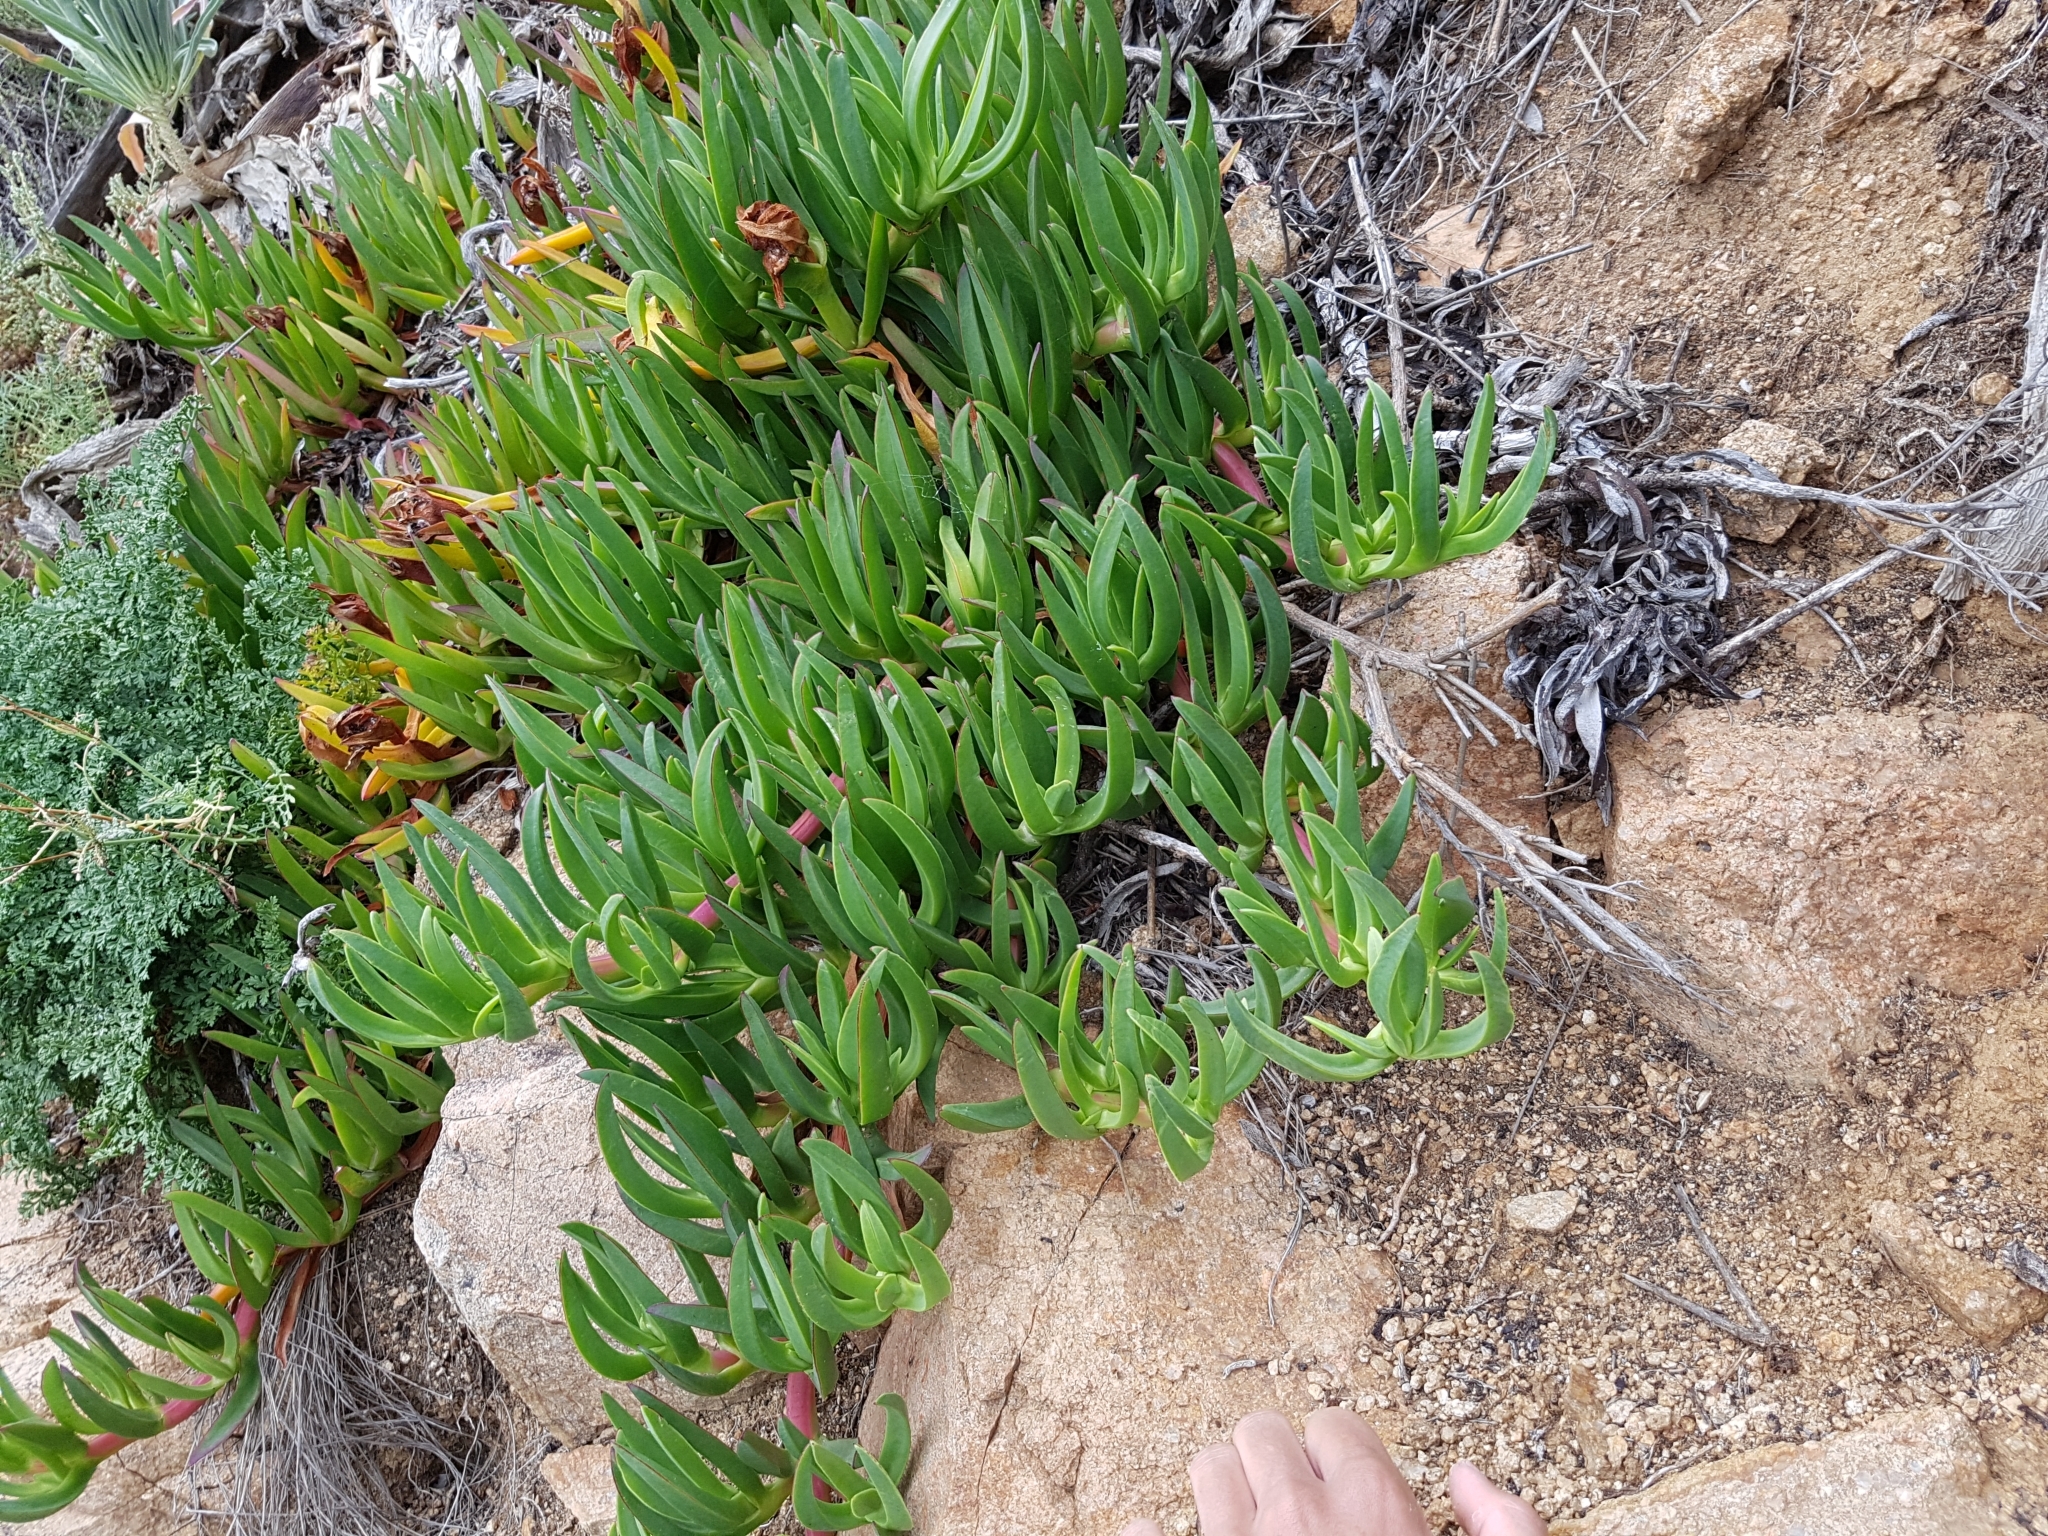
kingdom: Plantae
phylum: Tracheophyta
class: Magnoliopsida
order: Caryophyllales
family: Aizoaceae
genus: Carpobrotus
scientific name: Carpobrotus edulis
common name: Hottentot-fig
